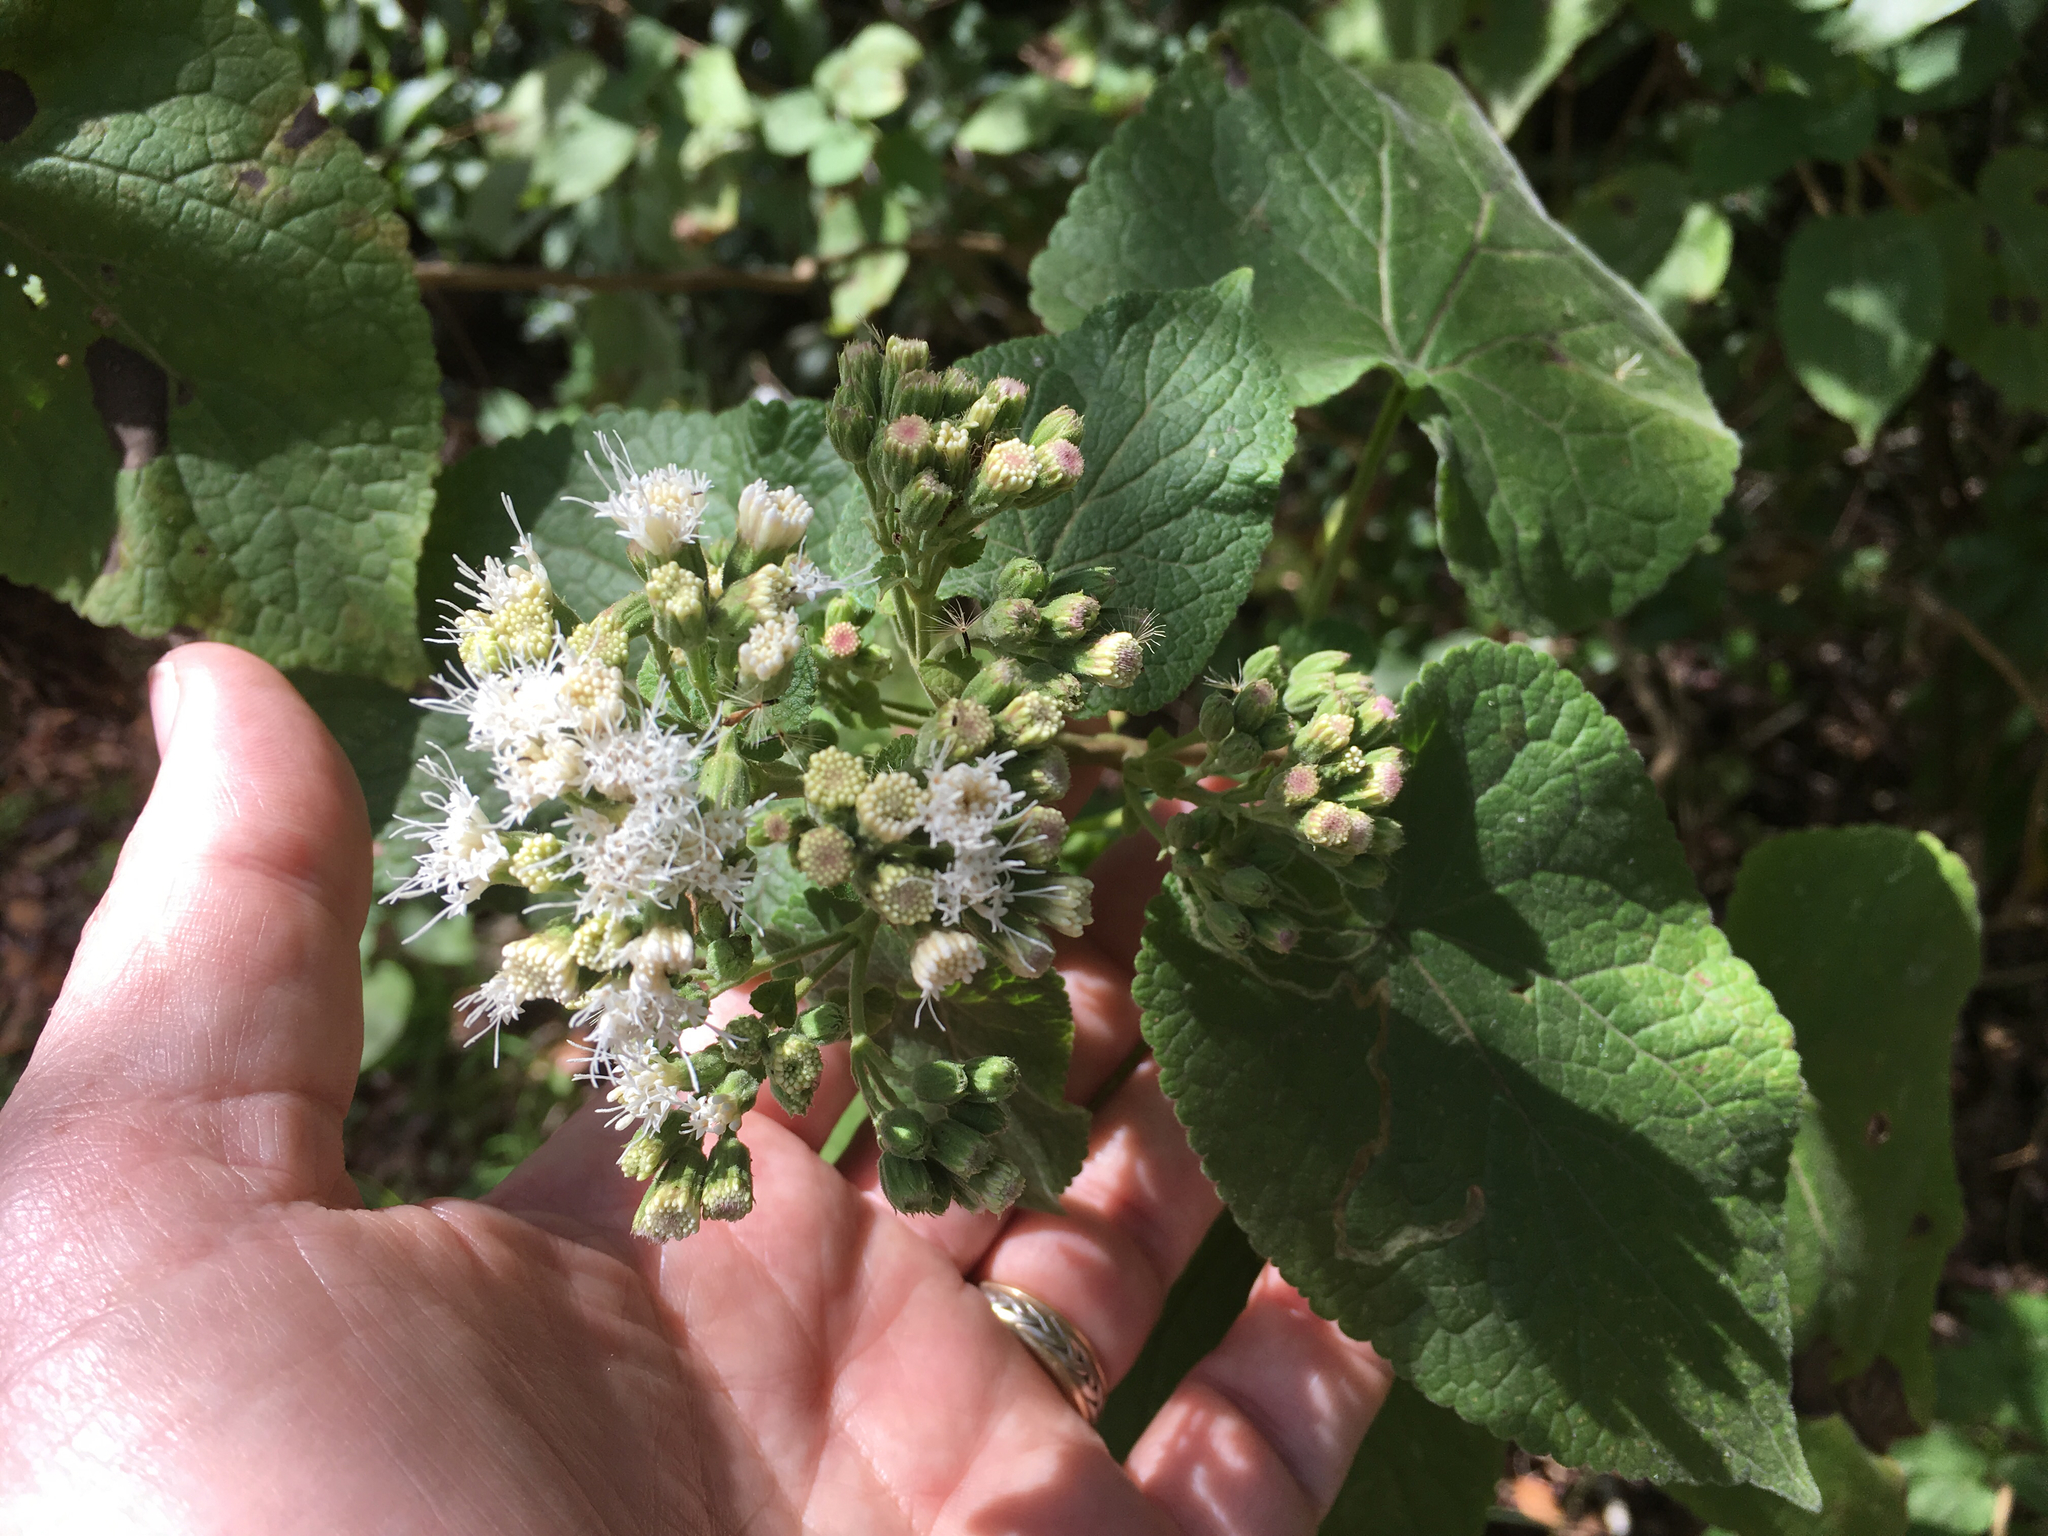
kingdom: Plantae
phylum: Tracheophyta
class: Magnoliopsida
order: Asterales
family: Asteraceae
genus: Ageratina
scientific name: Ageratina petiolaris
